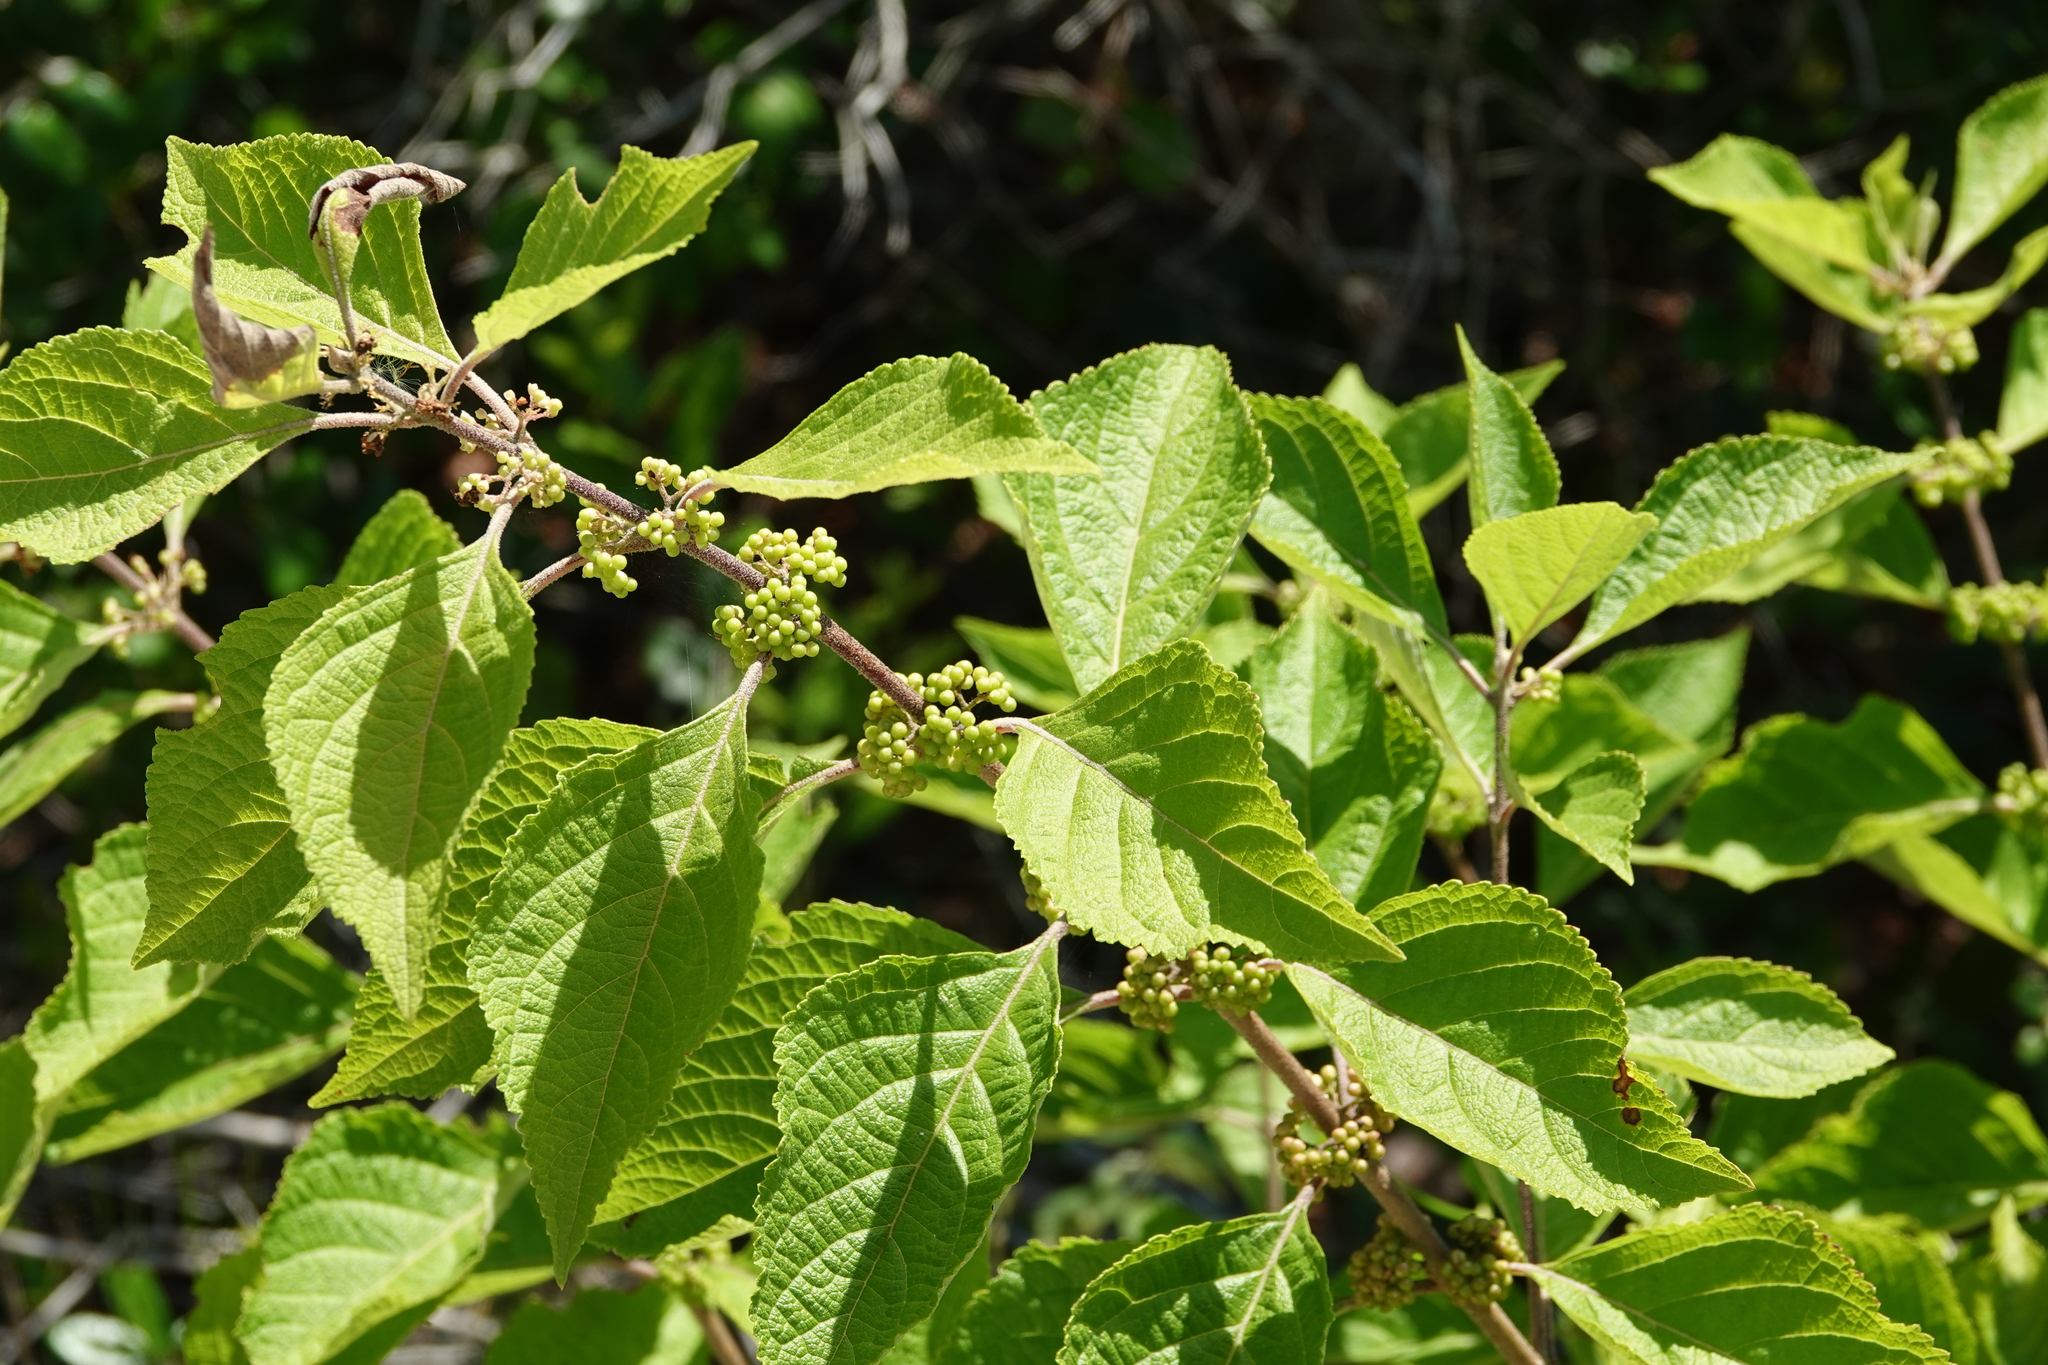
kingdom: Plantae
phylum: Tracheophyta
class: Magnoliopsida
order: Lamiales
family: Lamiaceae
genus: Callicarpa
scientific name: Callicarpa americana
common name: American beautyberry
